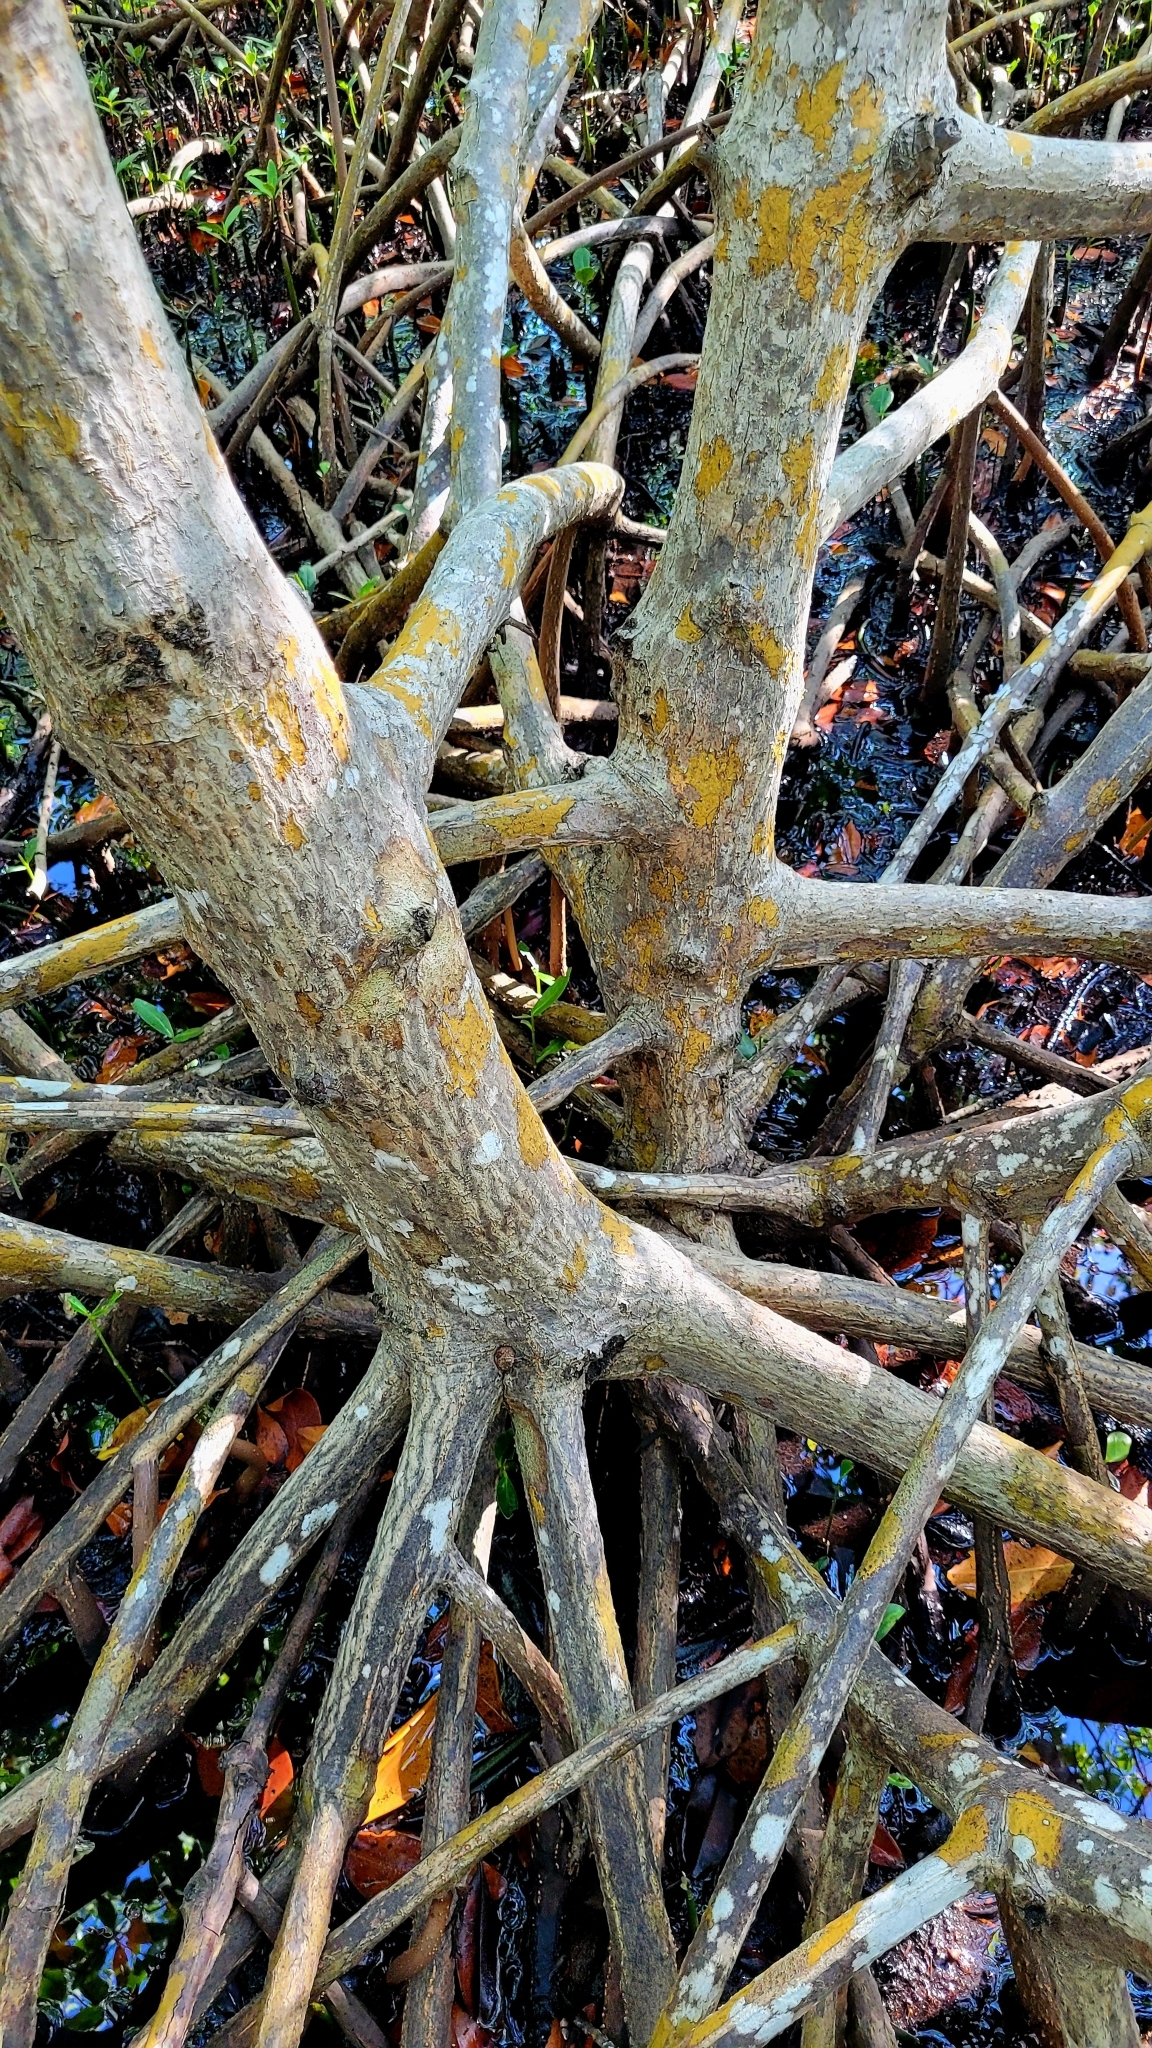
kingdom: Plantae
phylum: Tracheophyta
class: Magnoliopsida
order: Malpighiales
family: Rhizophoraceae
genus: Rhizophora
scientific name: Rhizophora mangle
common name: Red mangrove
